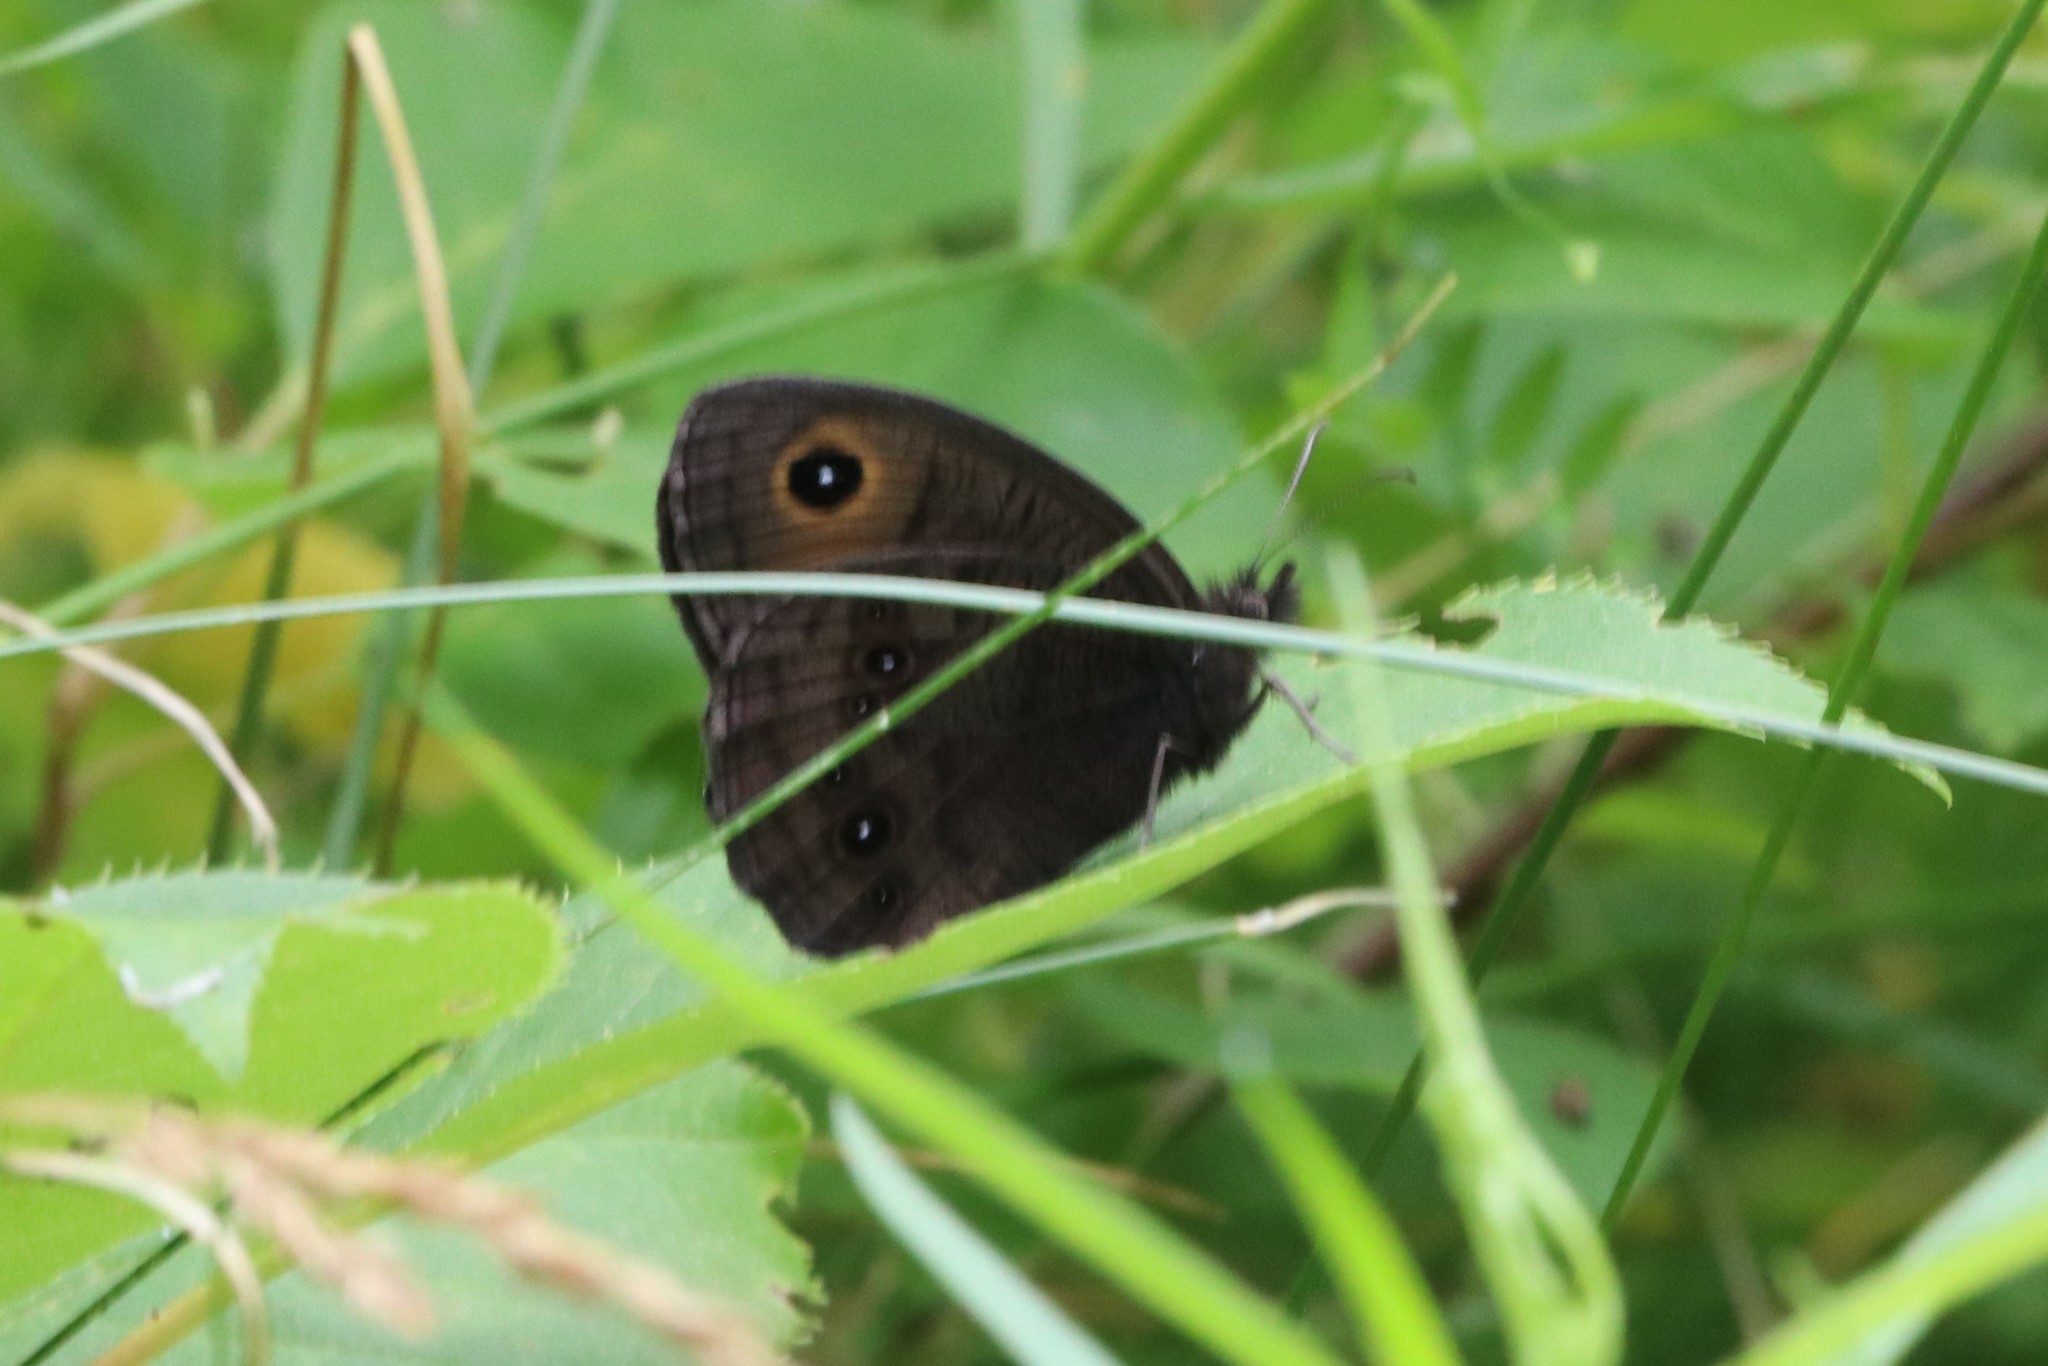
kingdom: Animalia
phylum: Arthropoda
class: Insecta
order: Lepidoptera
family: Nymphalidae
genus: Cercyonis
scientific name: Cercyonis pegala
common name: Common wood-nymph
